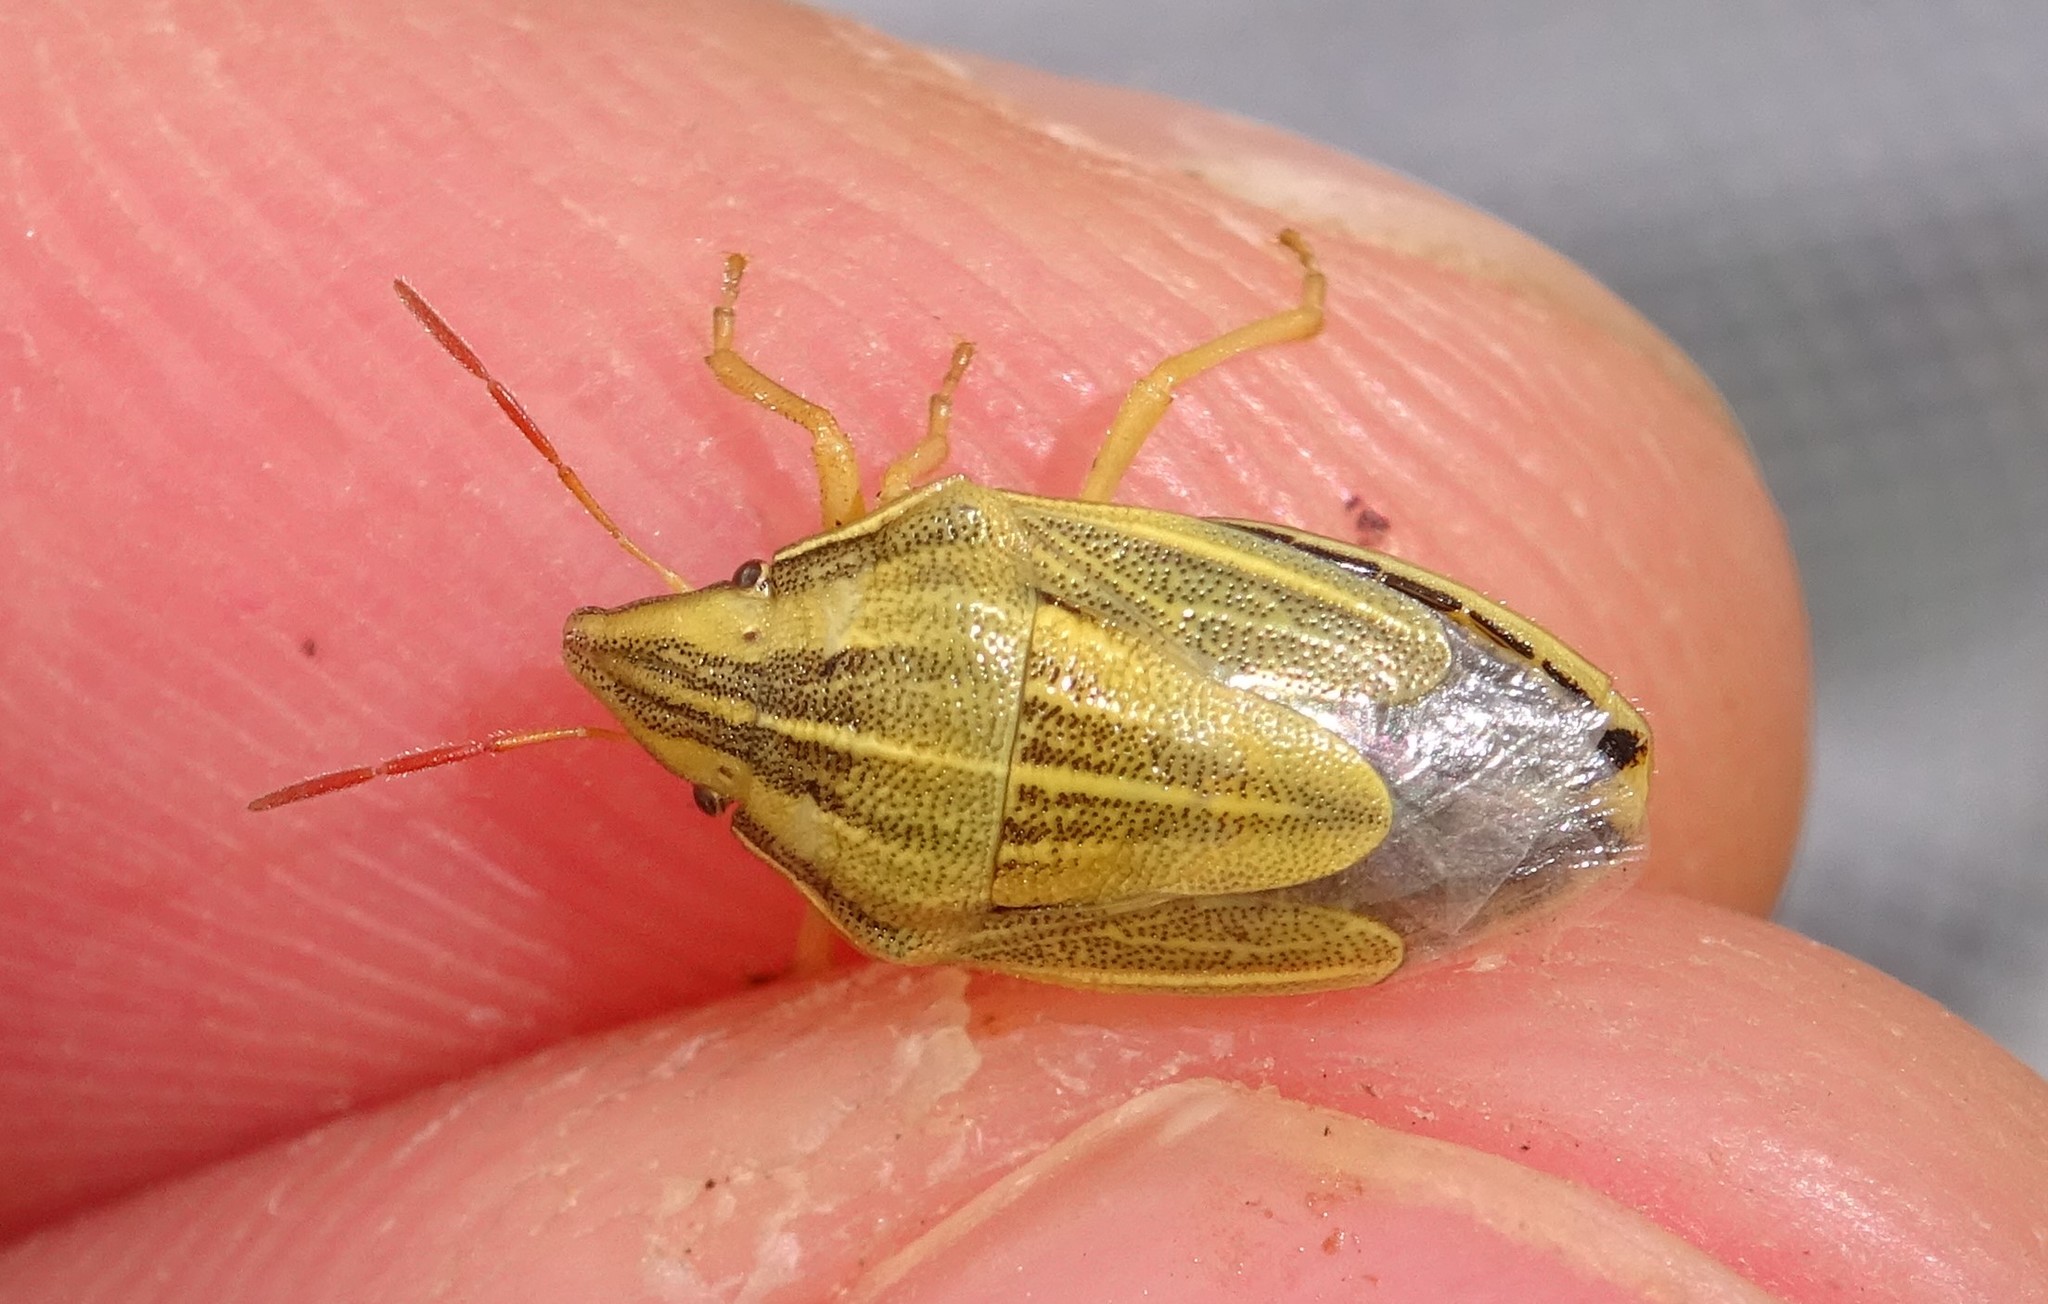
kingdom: Animalia
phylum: Arthropoda
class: Insecta
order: Hemiptera
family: Pentatomidae
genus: Aelia
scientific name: Aelia acuminata
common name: Bishop's mitre
